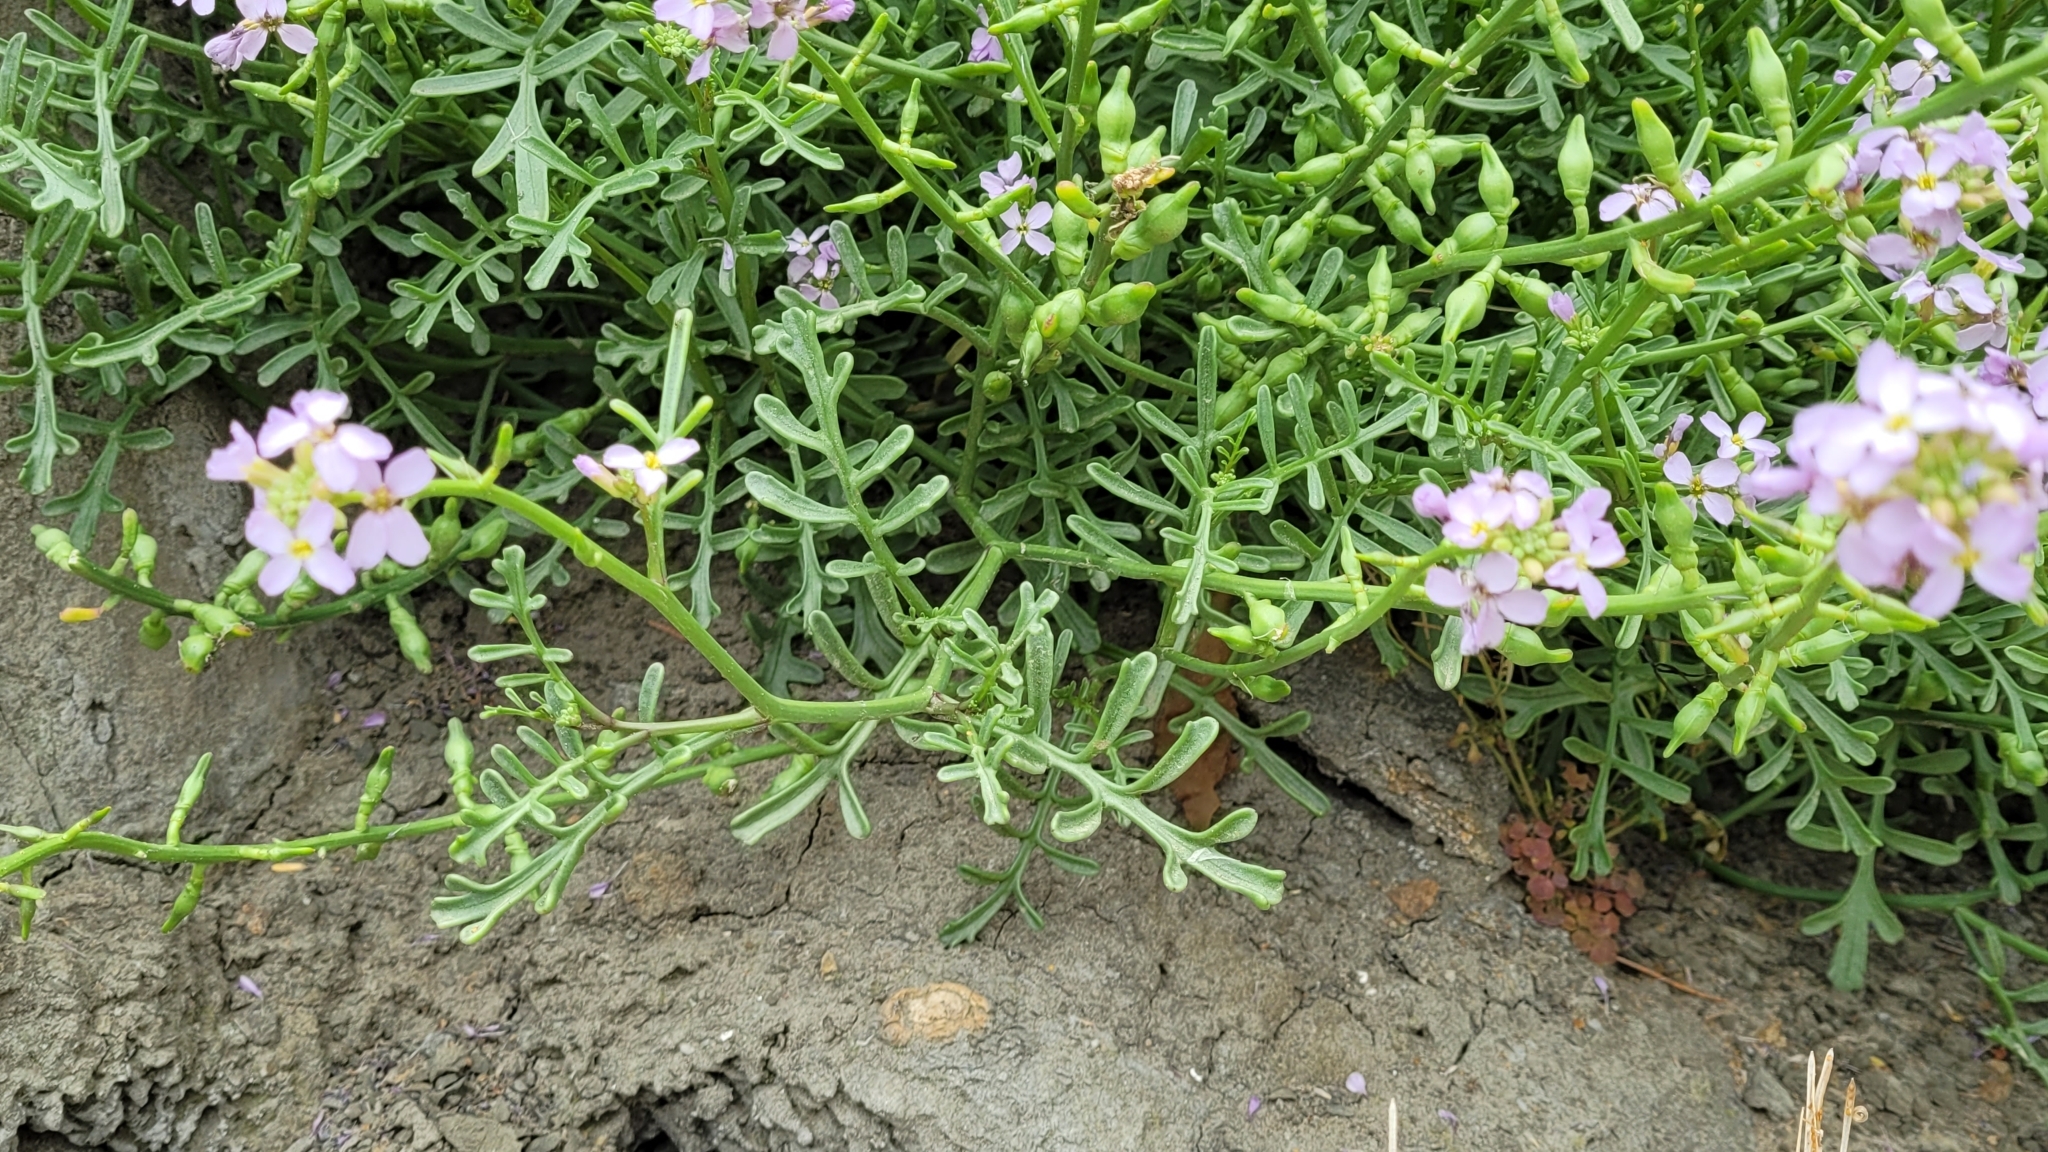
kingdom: Plantae
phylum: Tracheophyta
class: Magnoliopsida
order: Brassicales
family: Brassicaceae
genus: Cakile
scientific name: Cakile maritima
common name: Sea rocket
